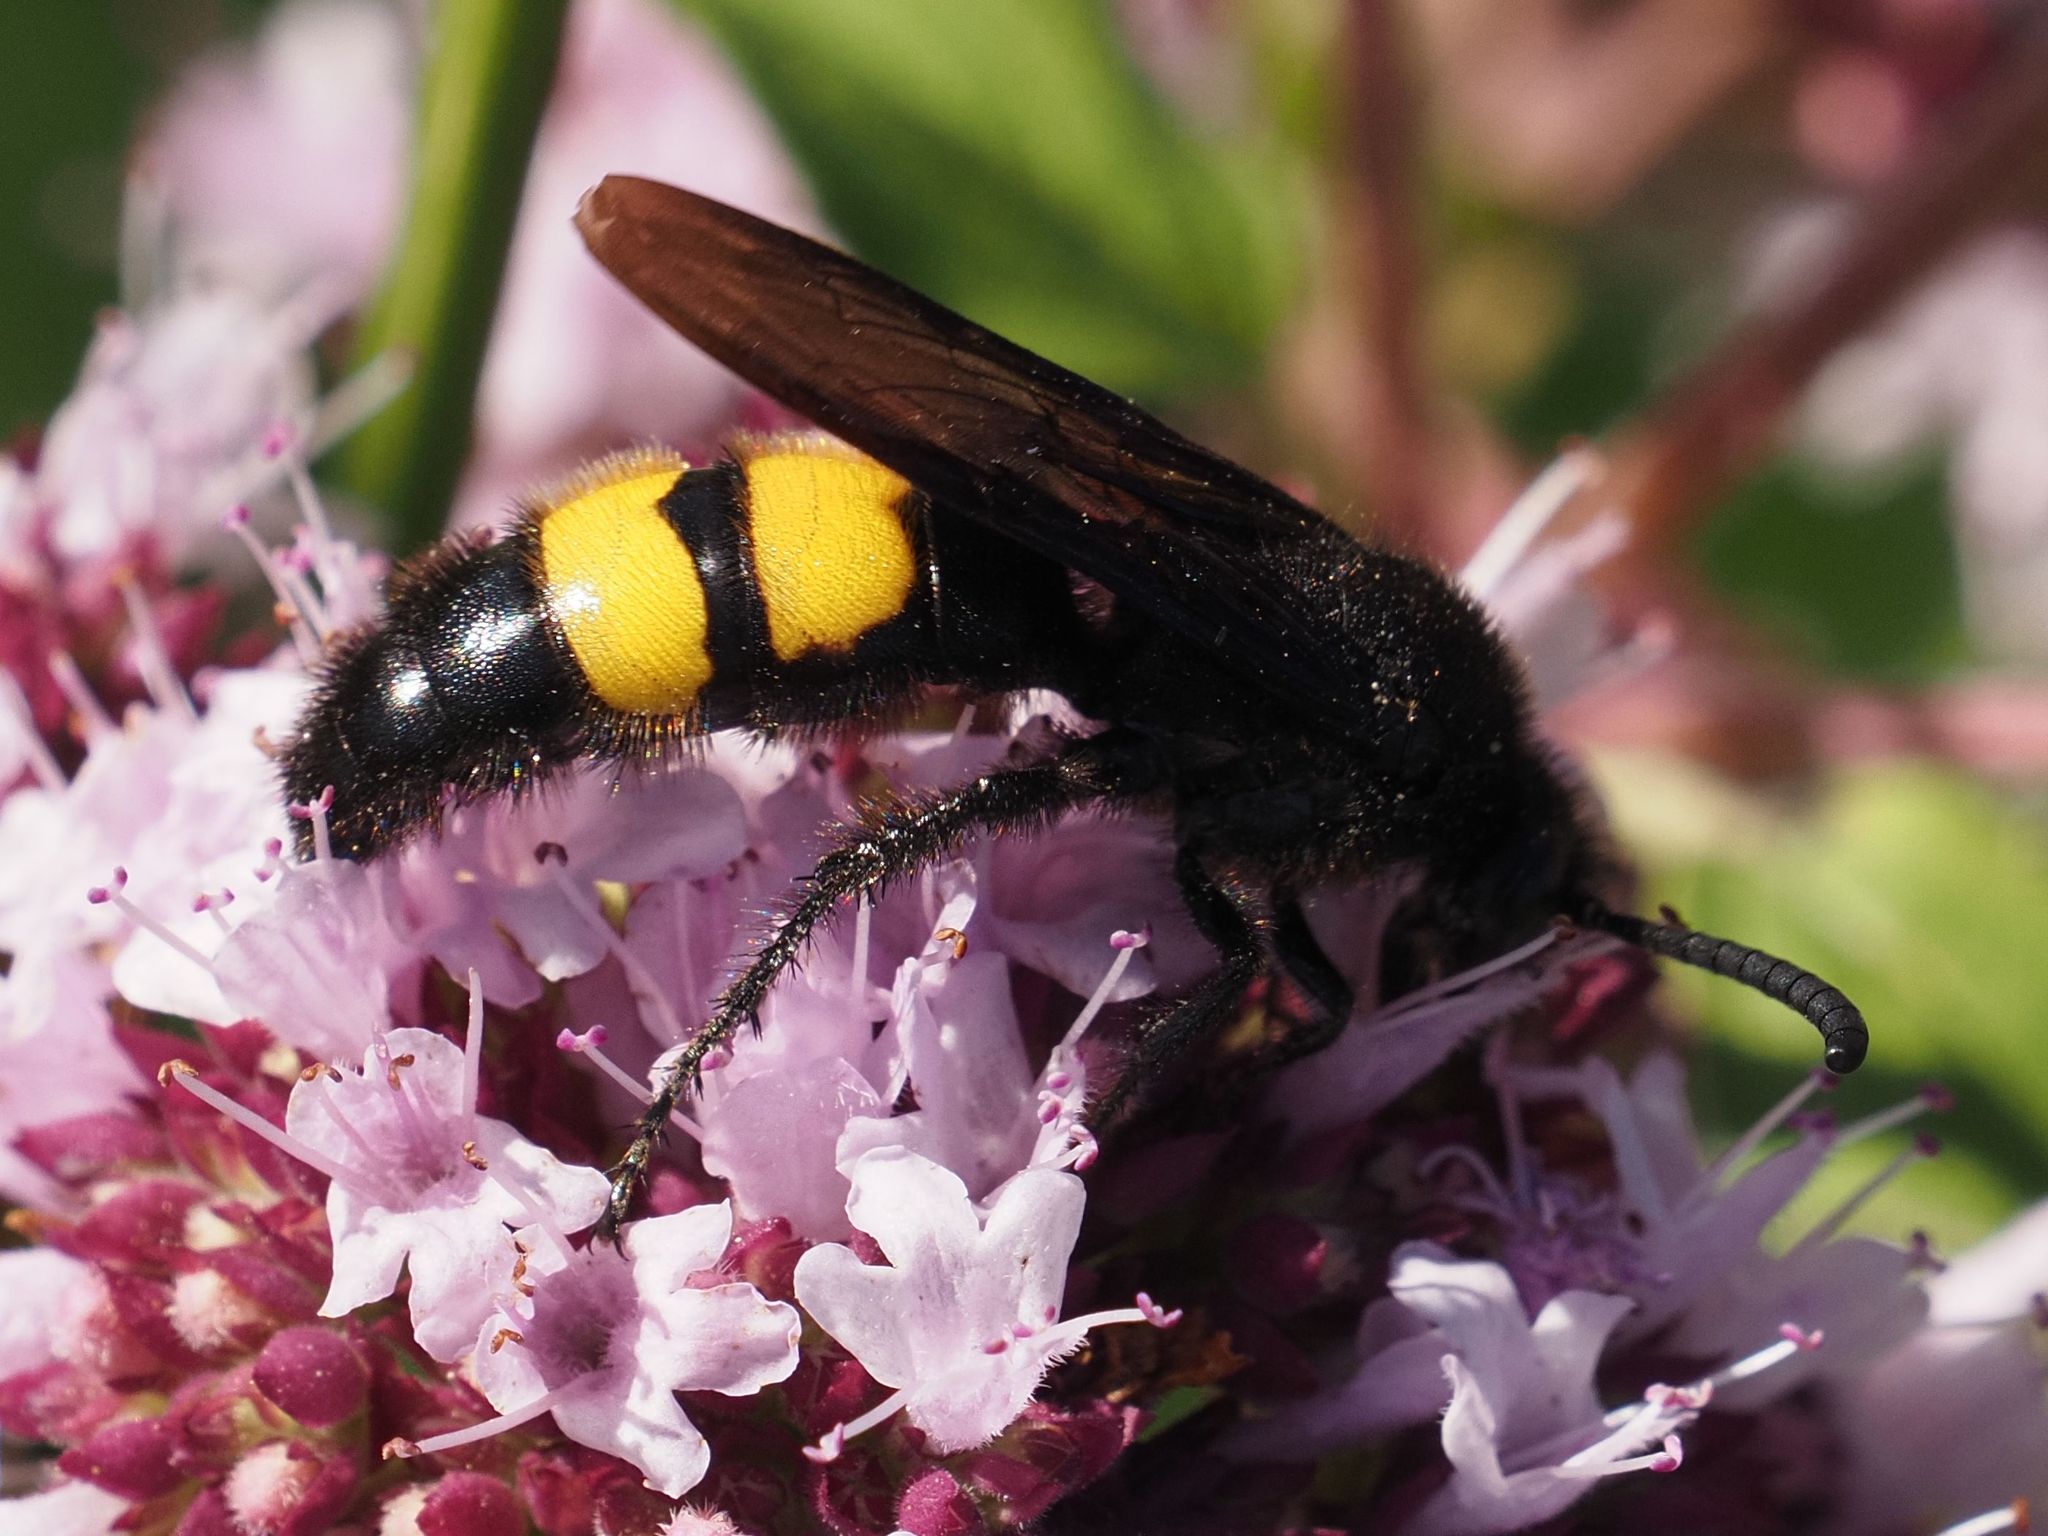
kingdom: Animalia
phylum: Arthropoda
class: Insecta
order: Hymenoptera
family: Scoliidae
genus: Scolia
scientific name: Scolia hirta
